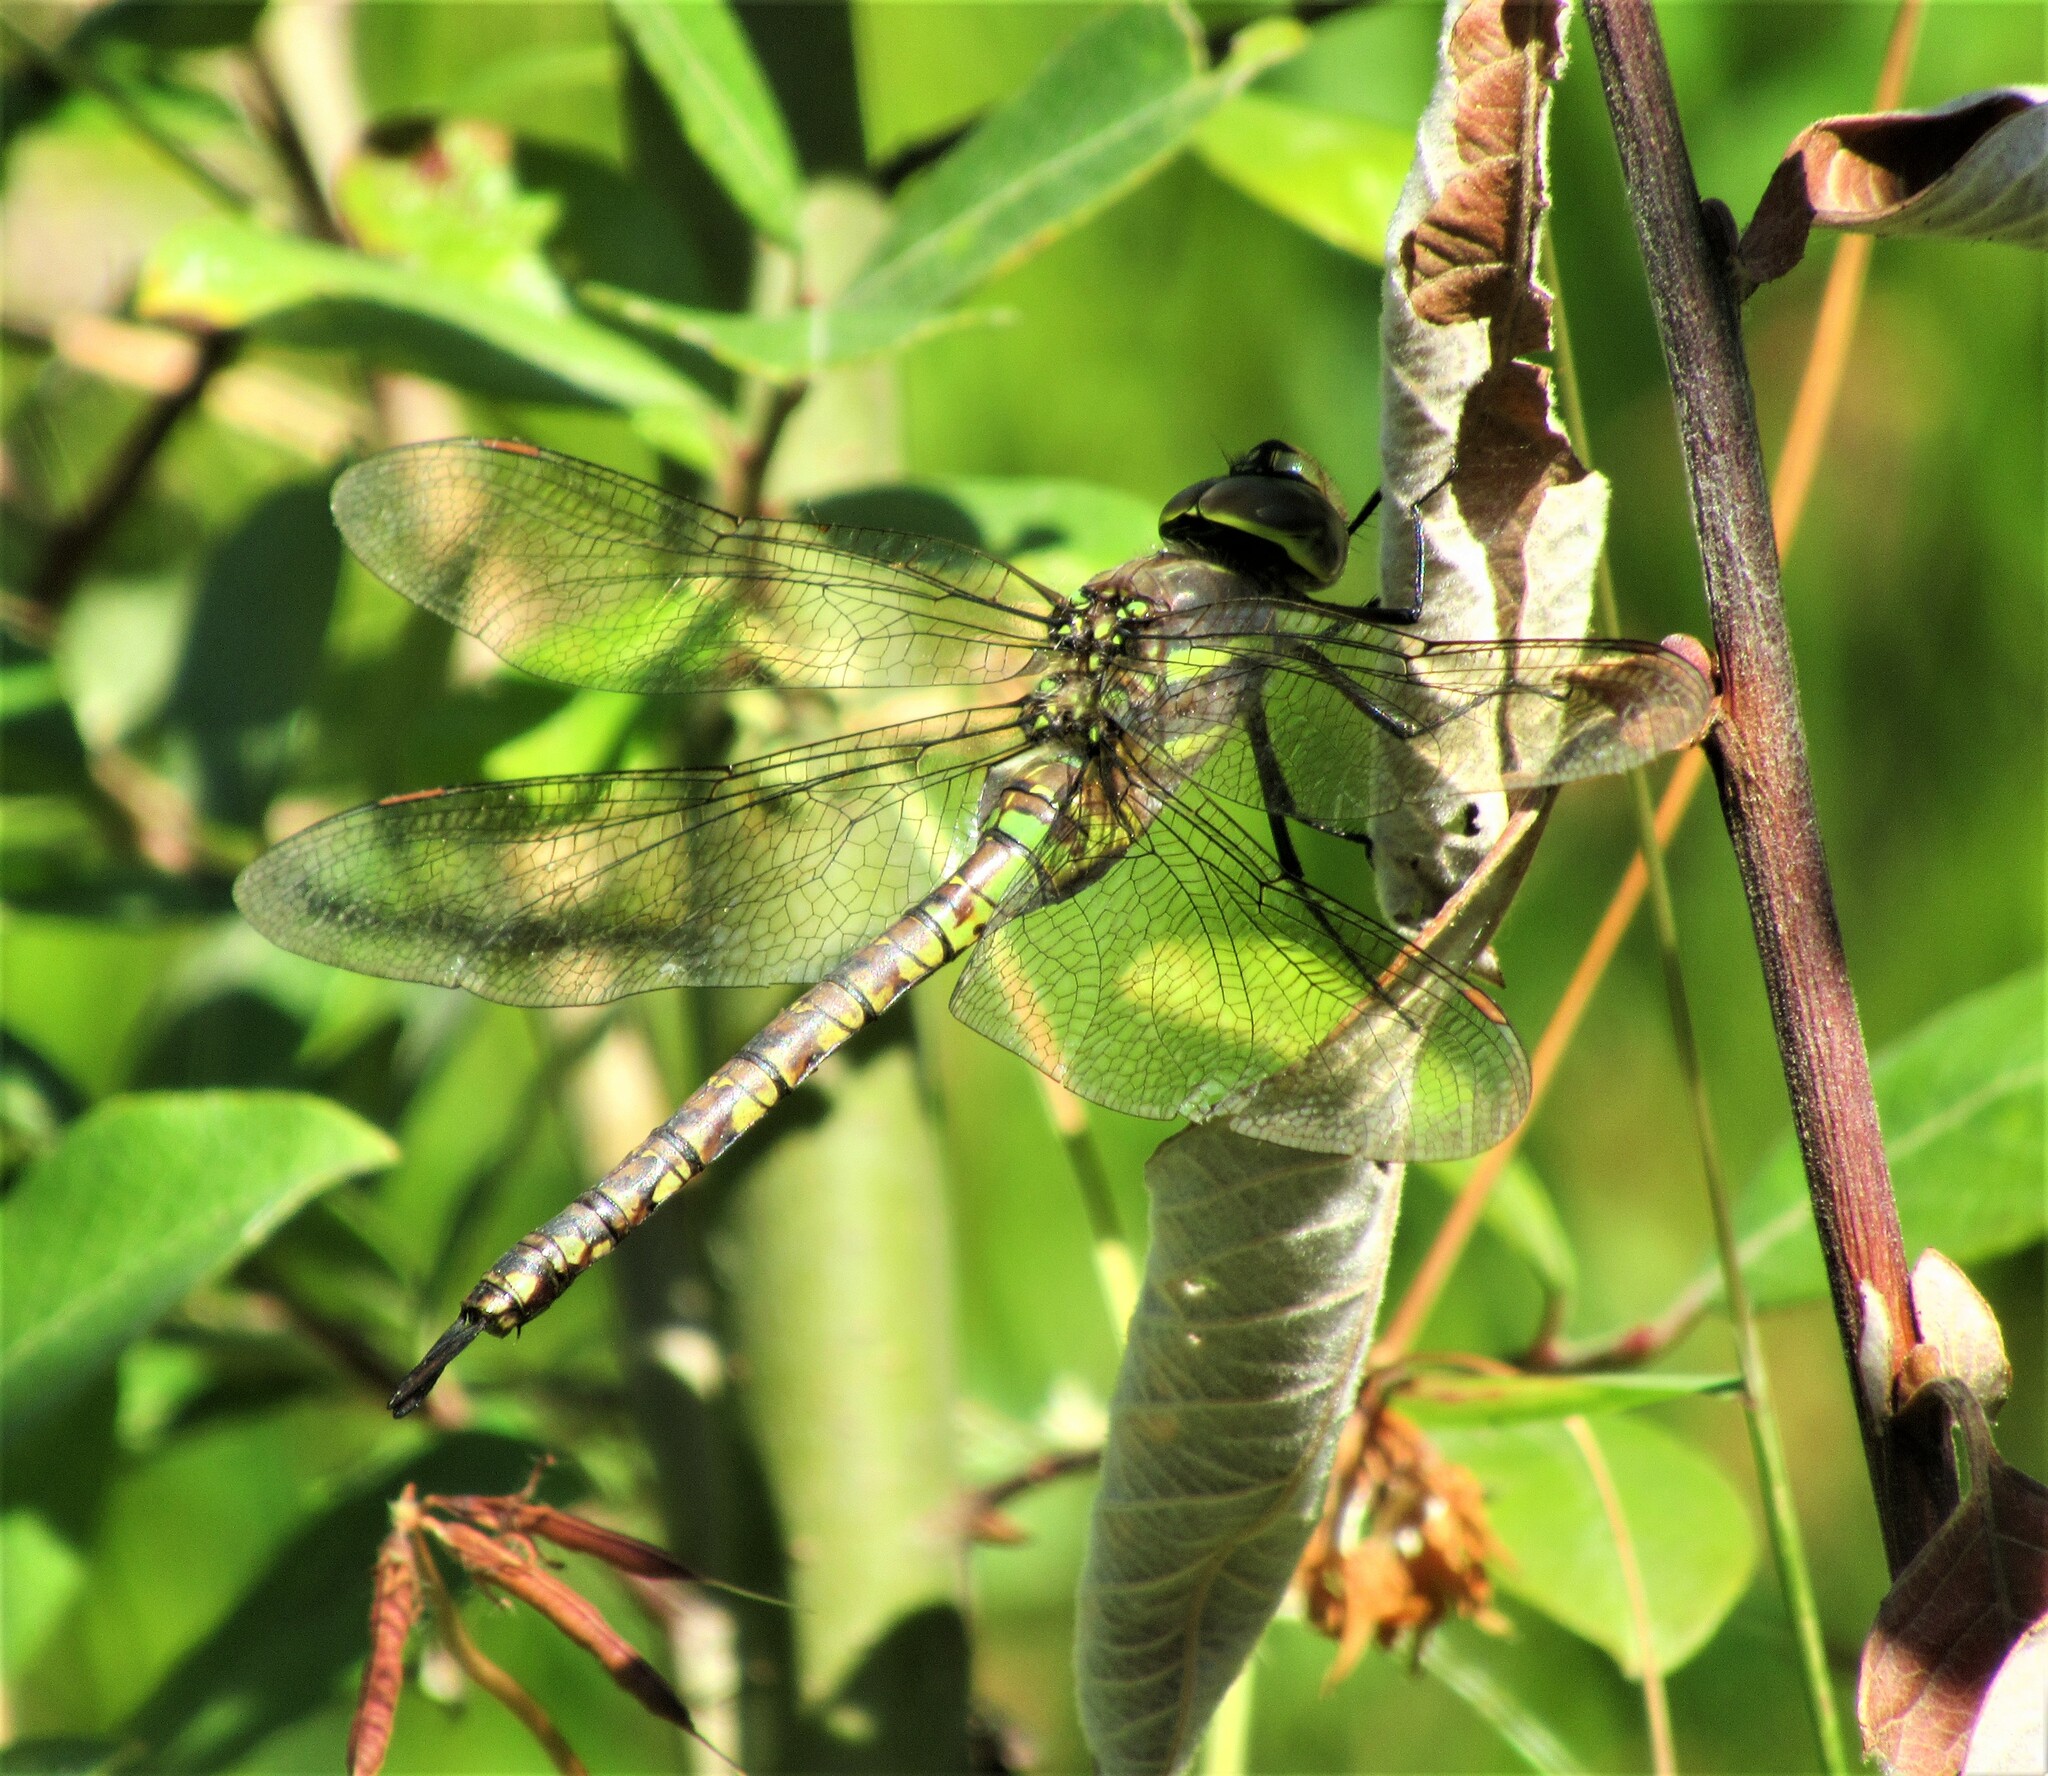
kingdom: Animalia
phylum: Arthropoda
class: Insecta
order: Odonata
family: Aeshnidae
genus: Rhionaeschna
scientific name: Rhionaeschna multicolor
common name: Blue-eyed darner
